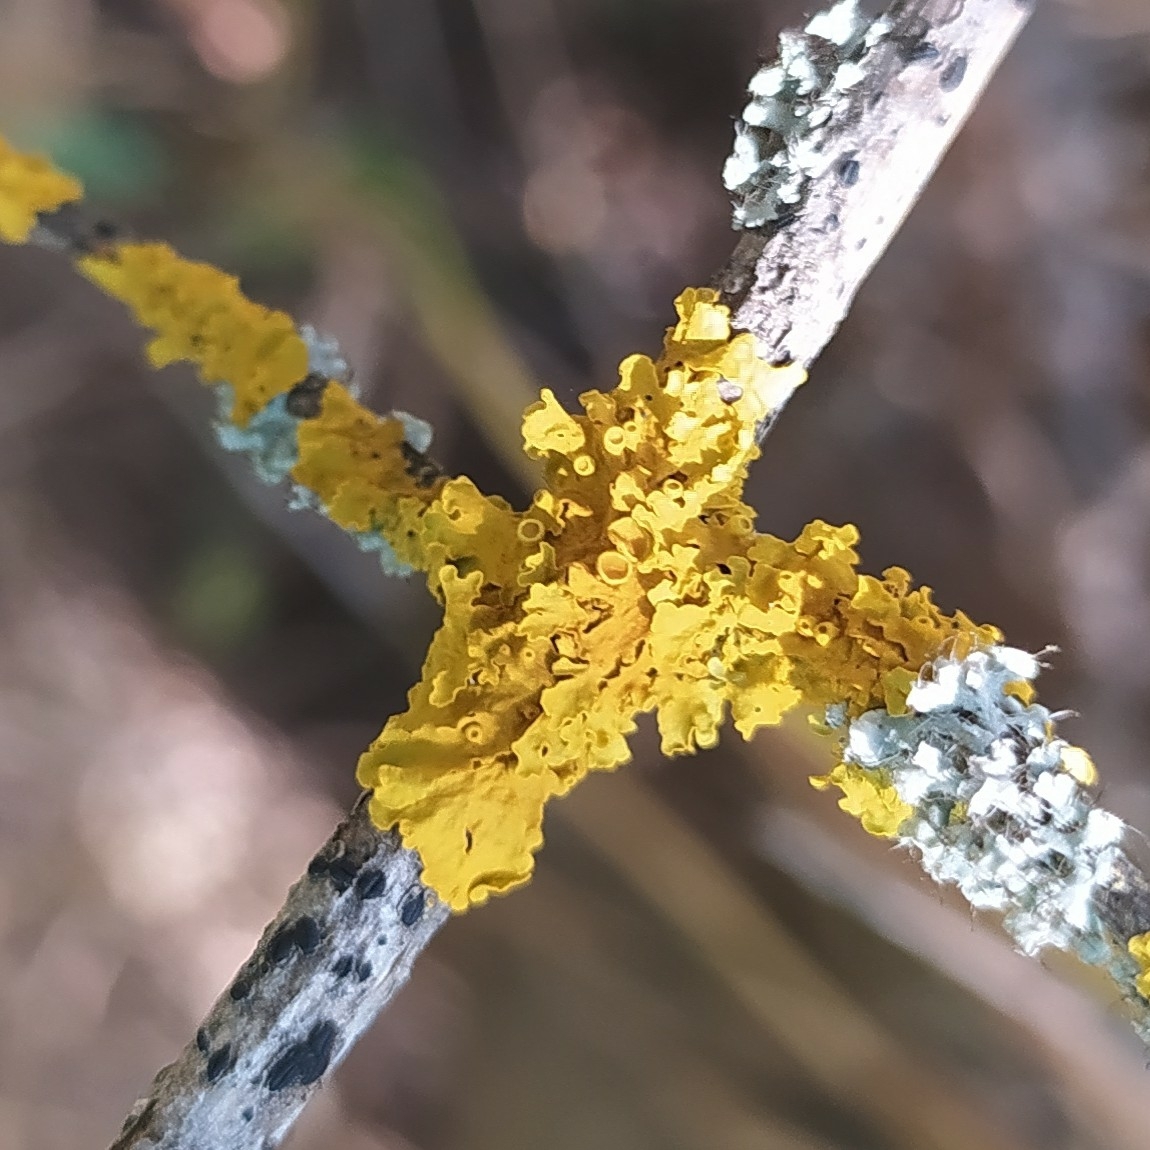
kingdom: Fungi
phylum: Ascomycota
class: Lecanoromycetes
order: Teloschistales
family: Teloschistaceae
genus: Xanthoria
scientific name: Xanthoria parietina
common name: Common orange lichen
